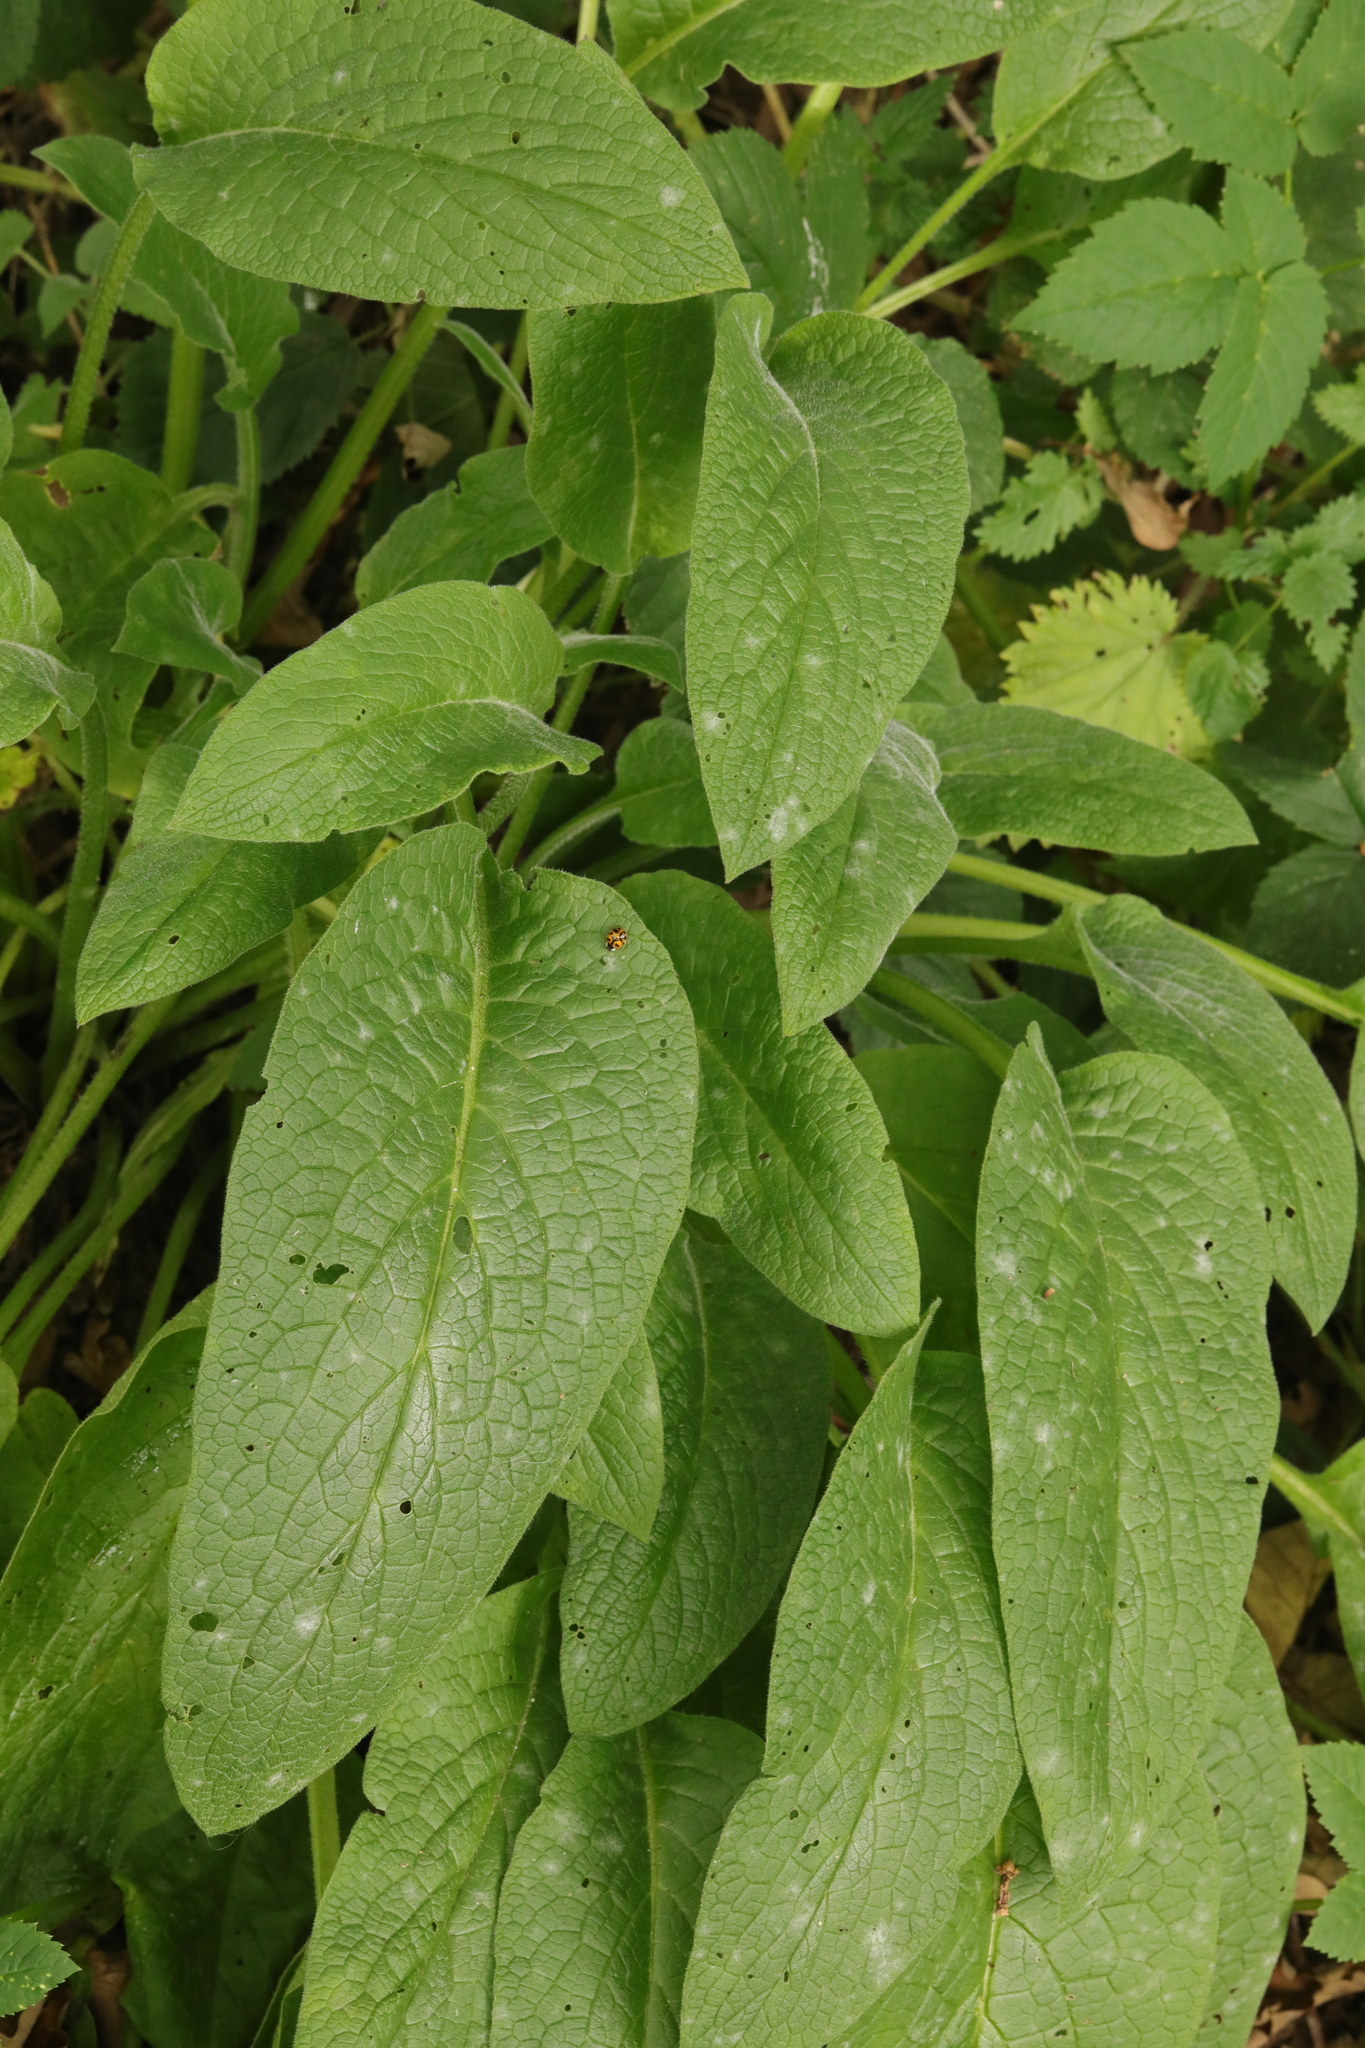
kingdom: Plantae
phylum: Tracheophyta
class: Magnoliopsida
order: Boraginales
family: Boraginaceae
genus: Symphytum
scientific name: Symphytum officinale
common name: Common comfrey
